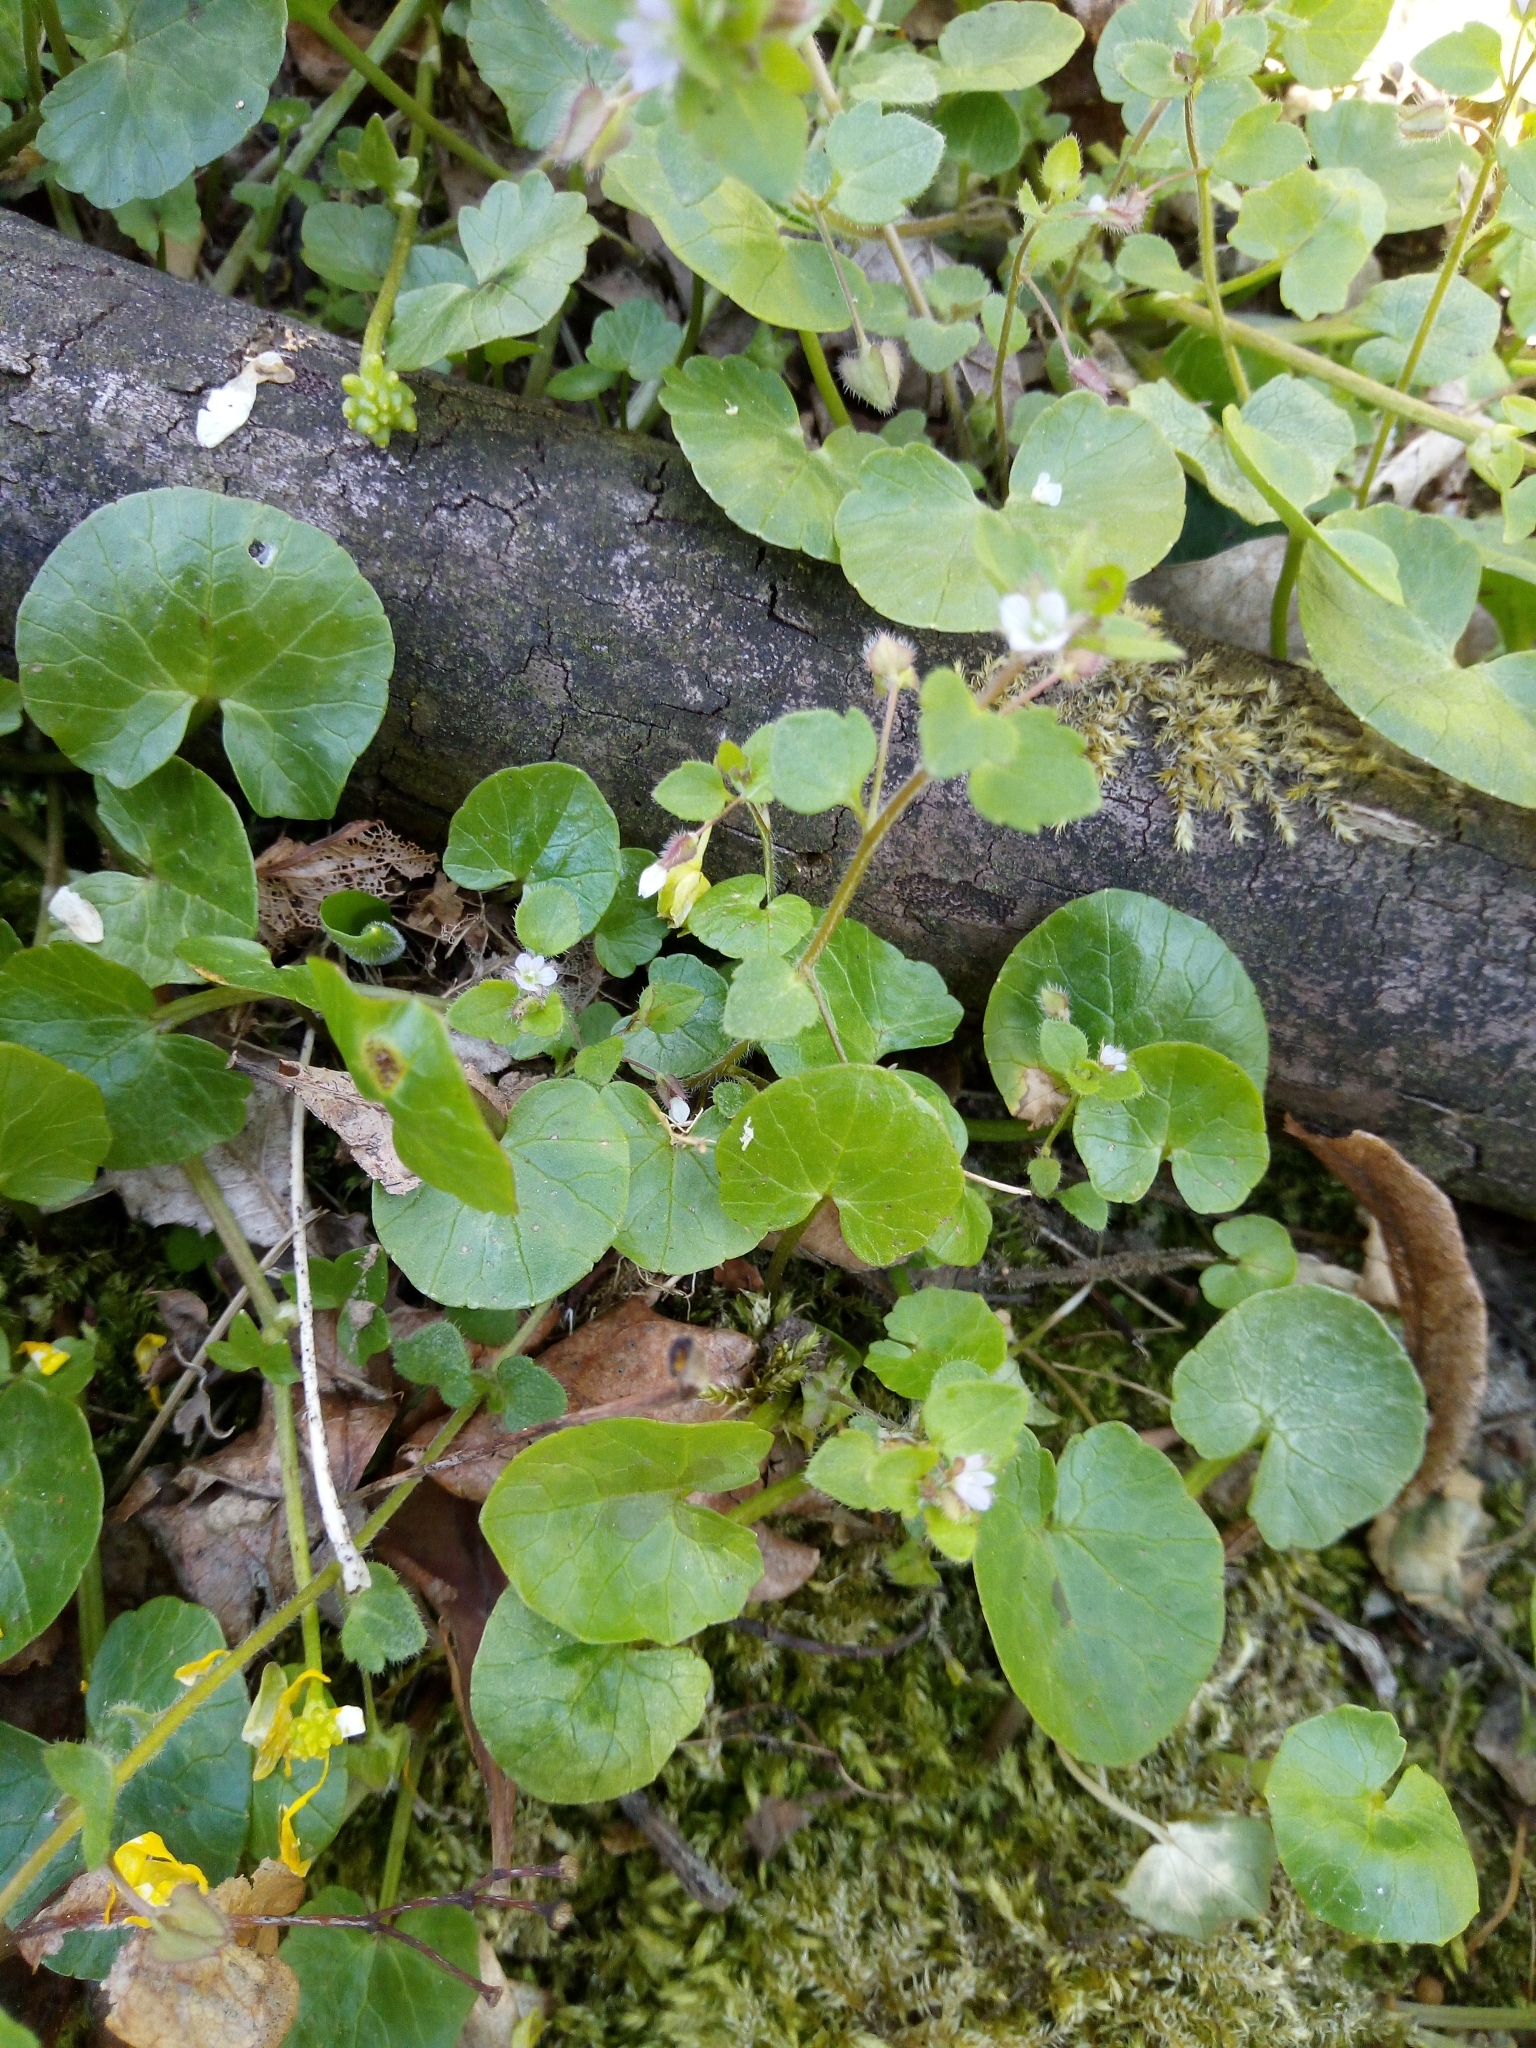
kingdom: Plantae
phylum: Tracheophyta
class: Magnoliopsida
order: Lamiales
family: Plantaginaceae
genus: Veronica
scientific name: Veronica sublobata
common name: False ivy-leaved speedwell
